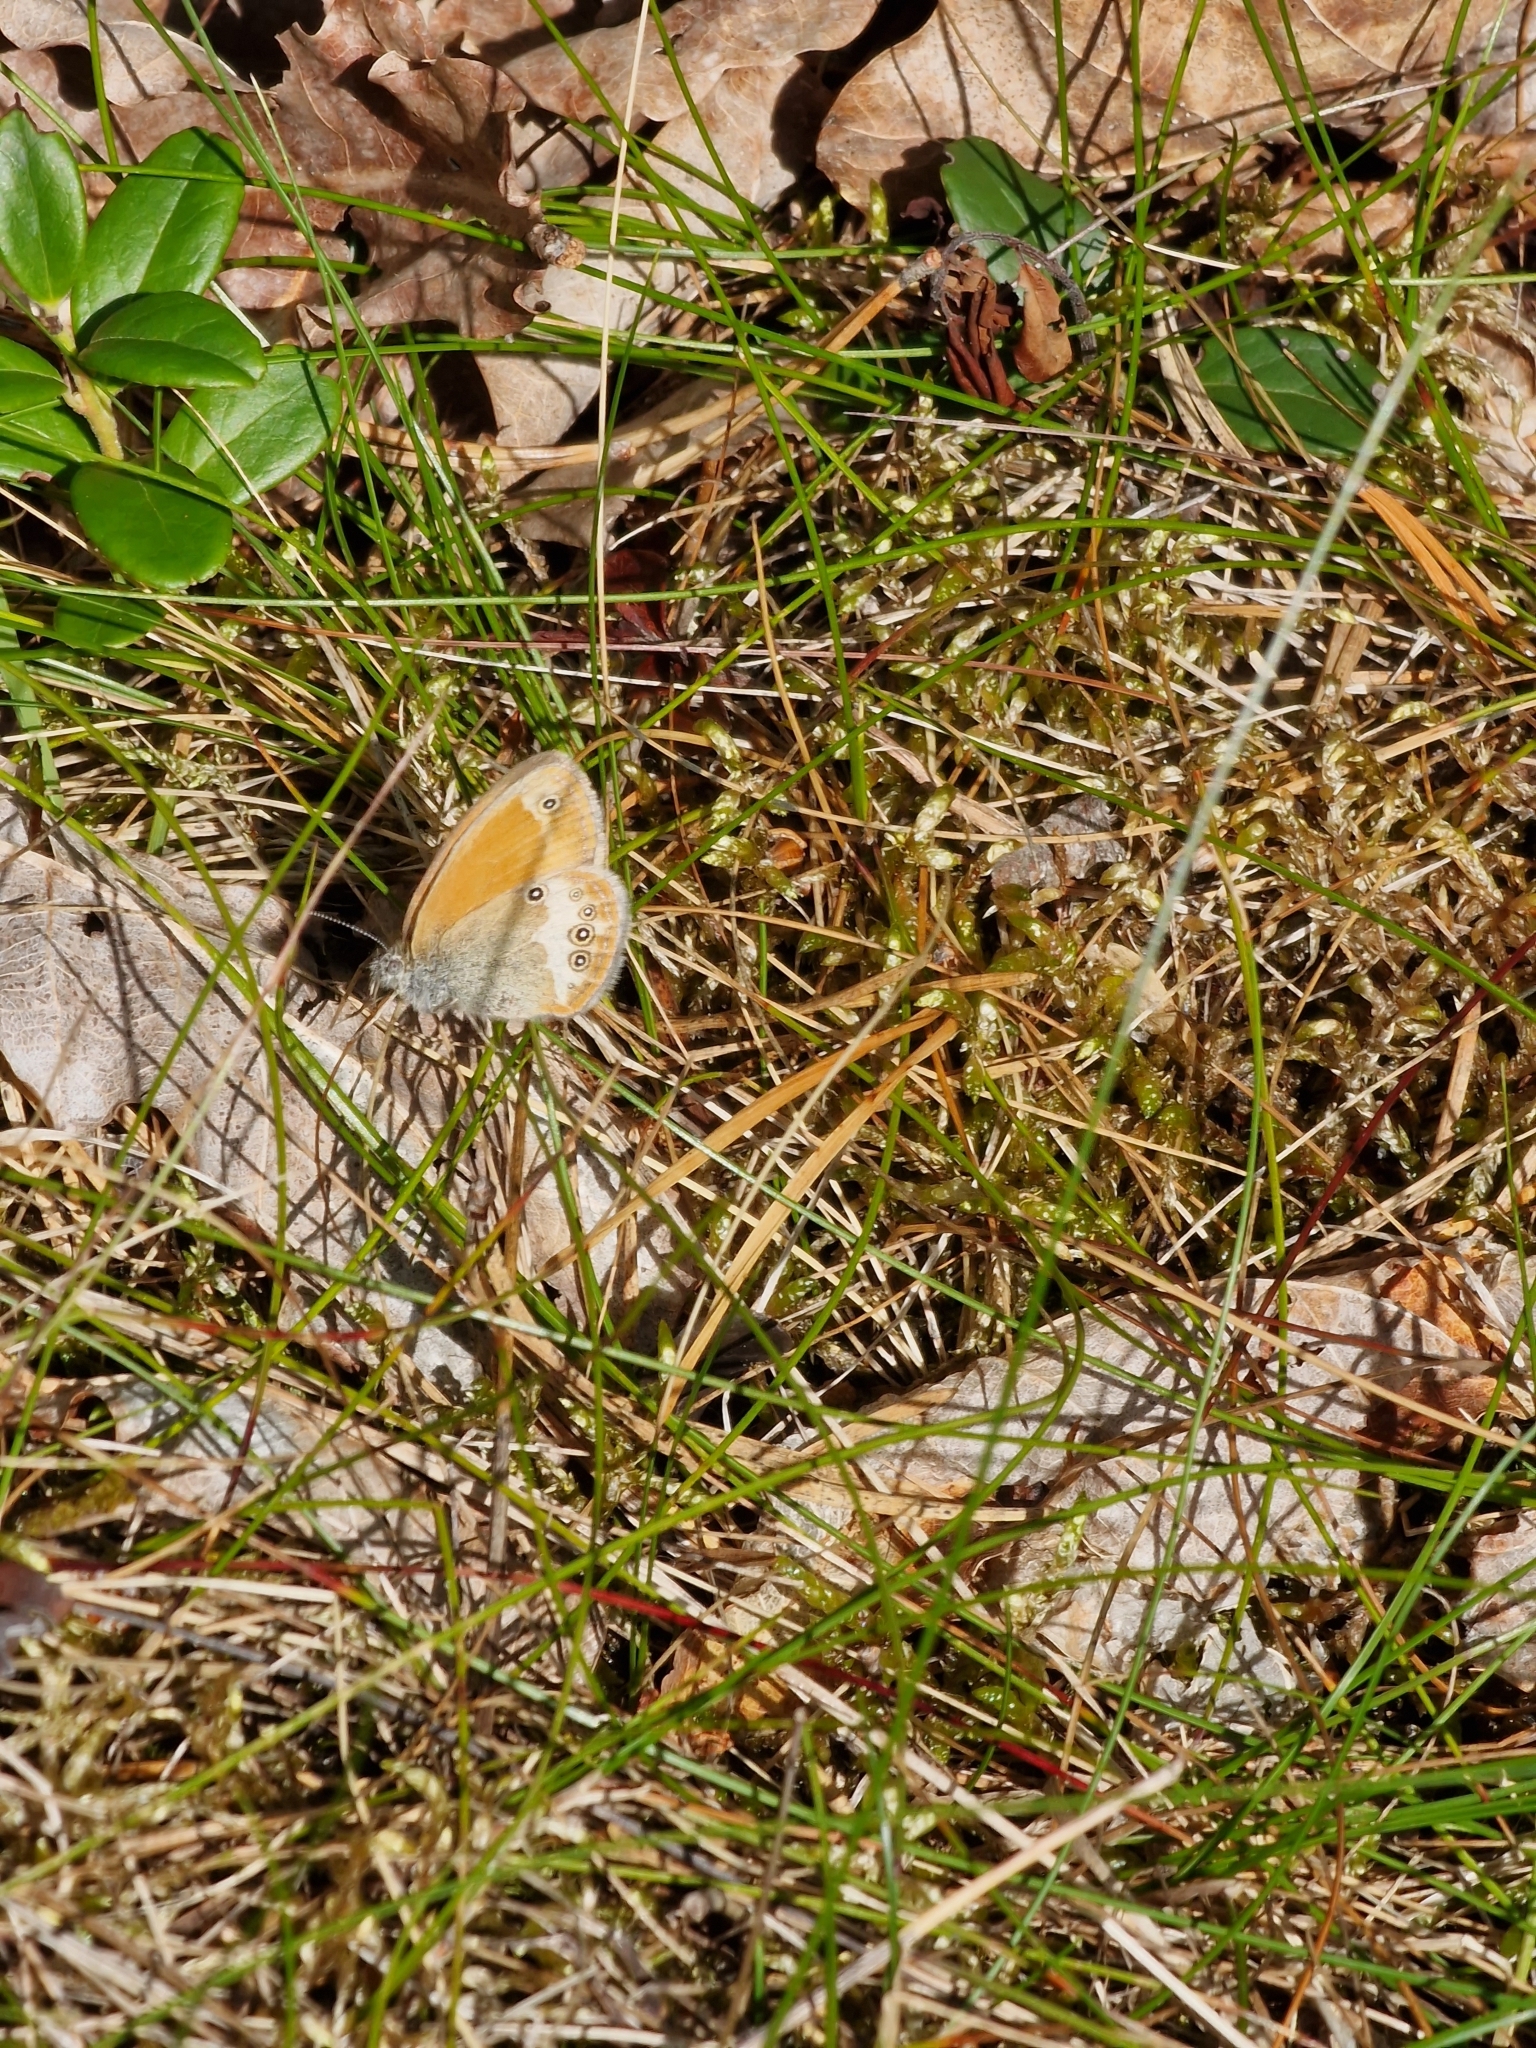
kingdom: Animalia
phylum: Arthropoda
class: Insecta
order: Lepidoptera
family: Nymphalidae
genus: Coenonympha
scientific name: Coenonympha arcania
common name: Pearly heath
